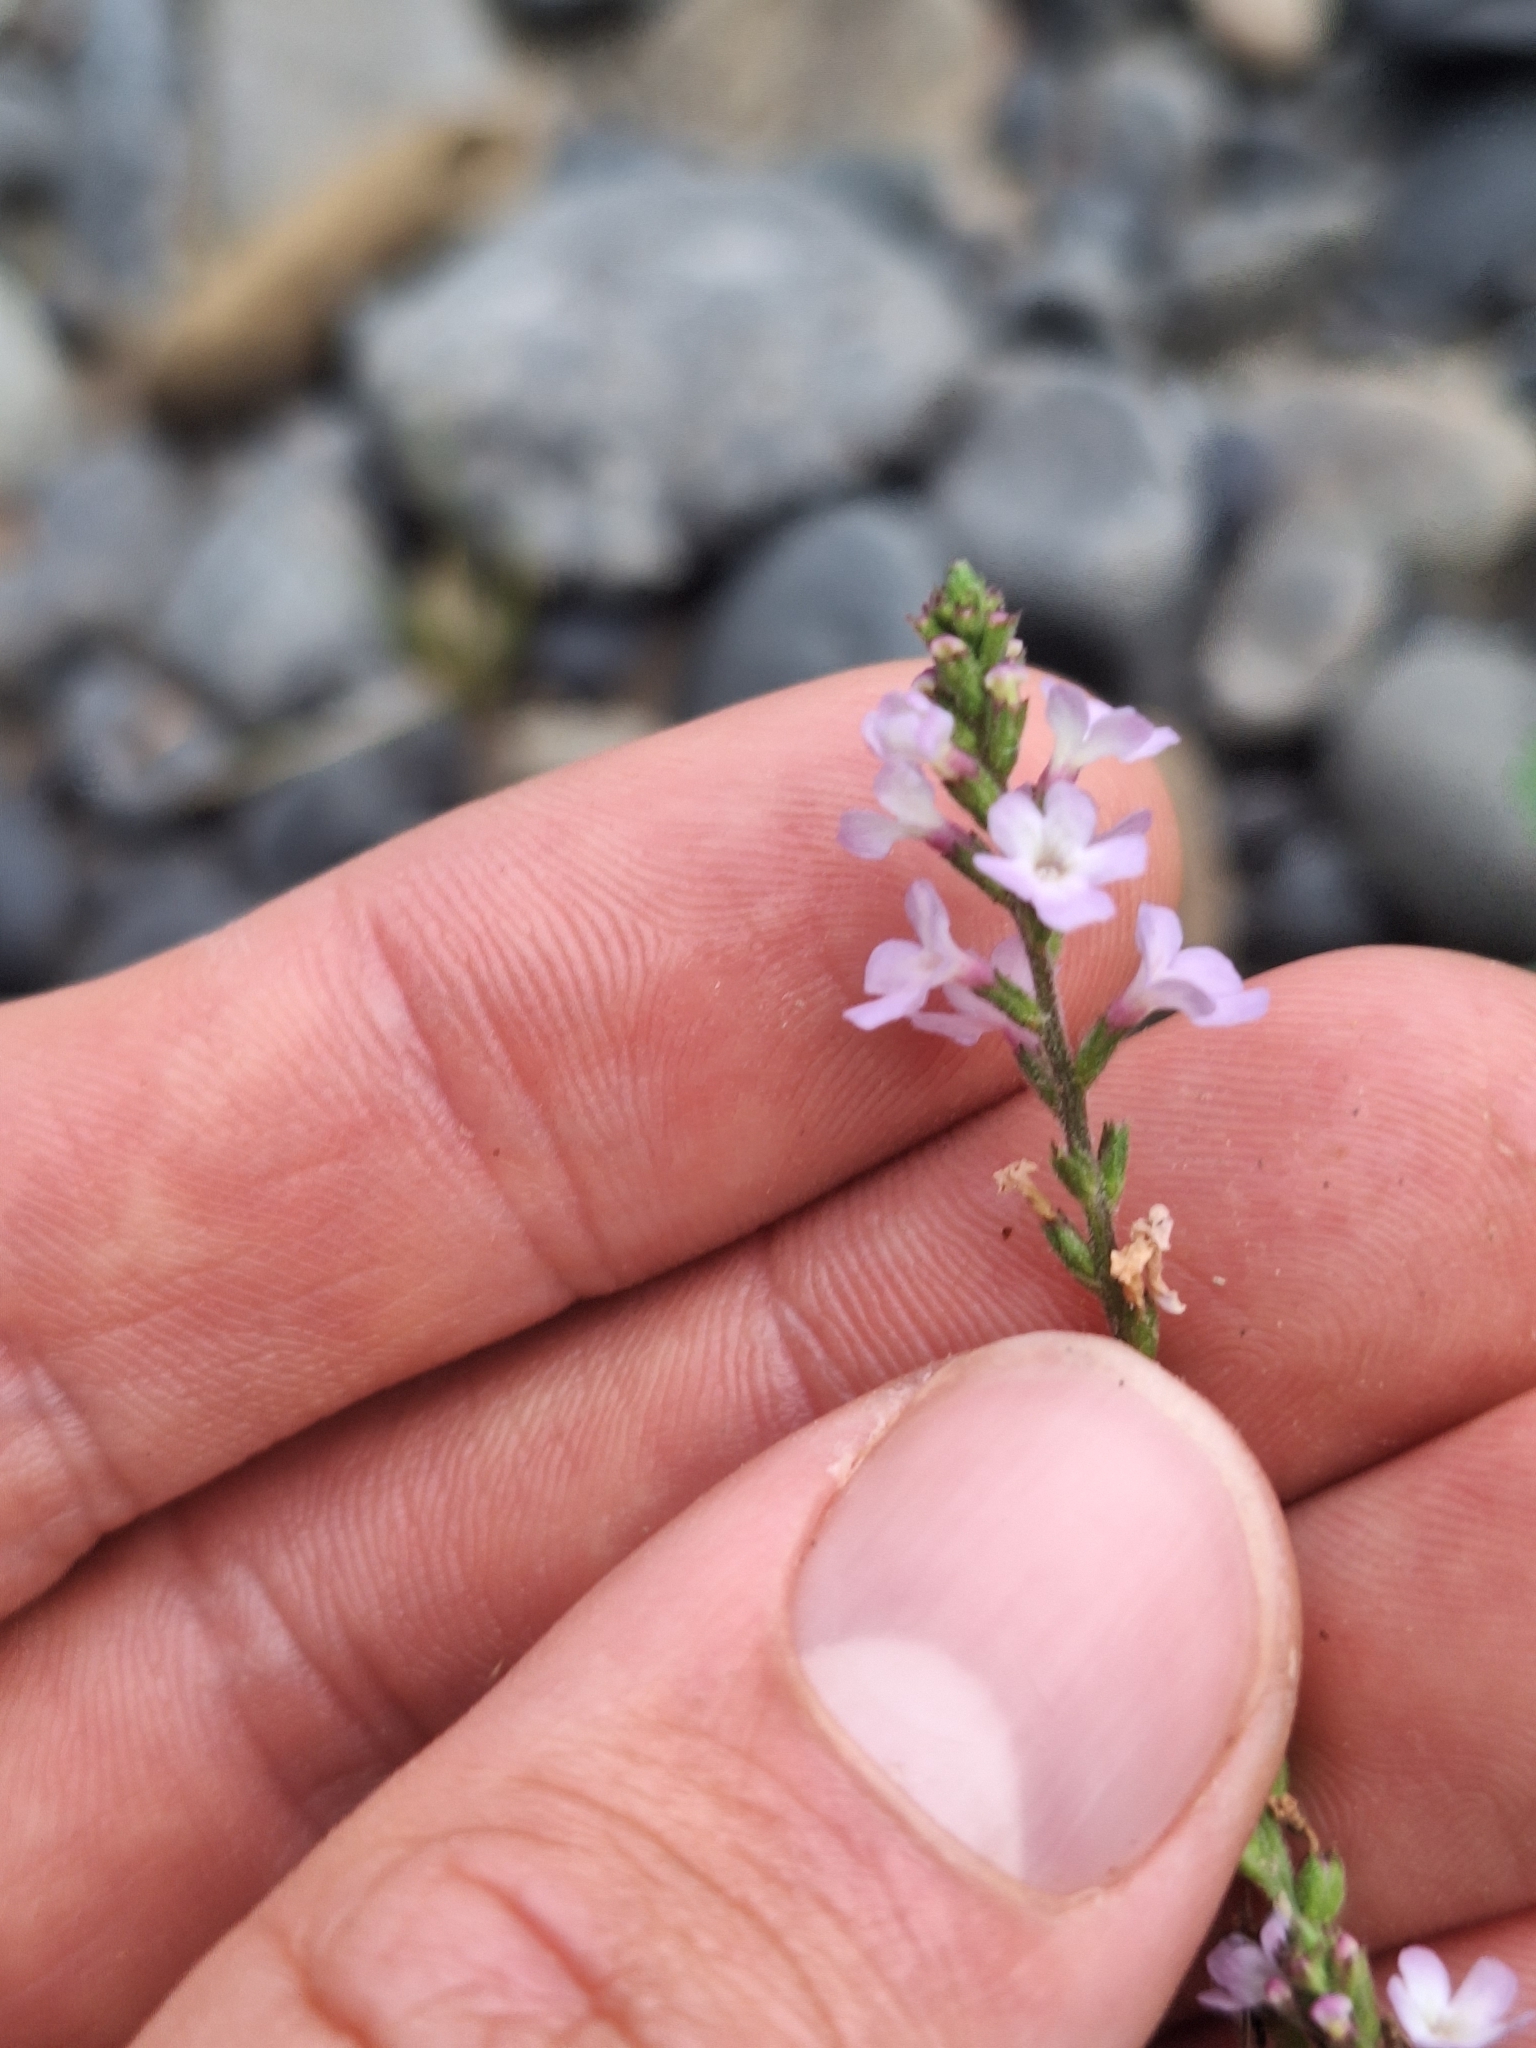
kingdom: Plantae
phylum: Tracheophyta
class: Magnoliopsida
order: Lamiales
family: Verbenaceae
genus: Verbena
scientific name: Verbena officinalis
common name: Vervain
